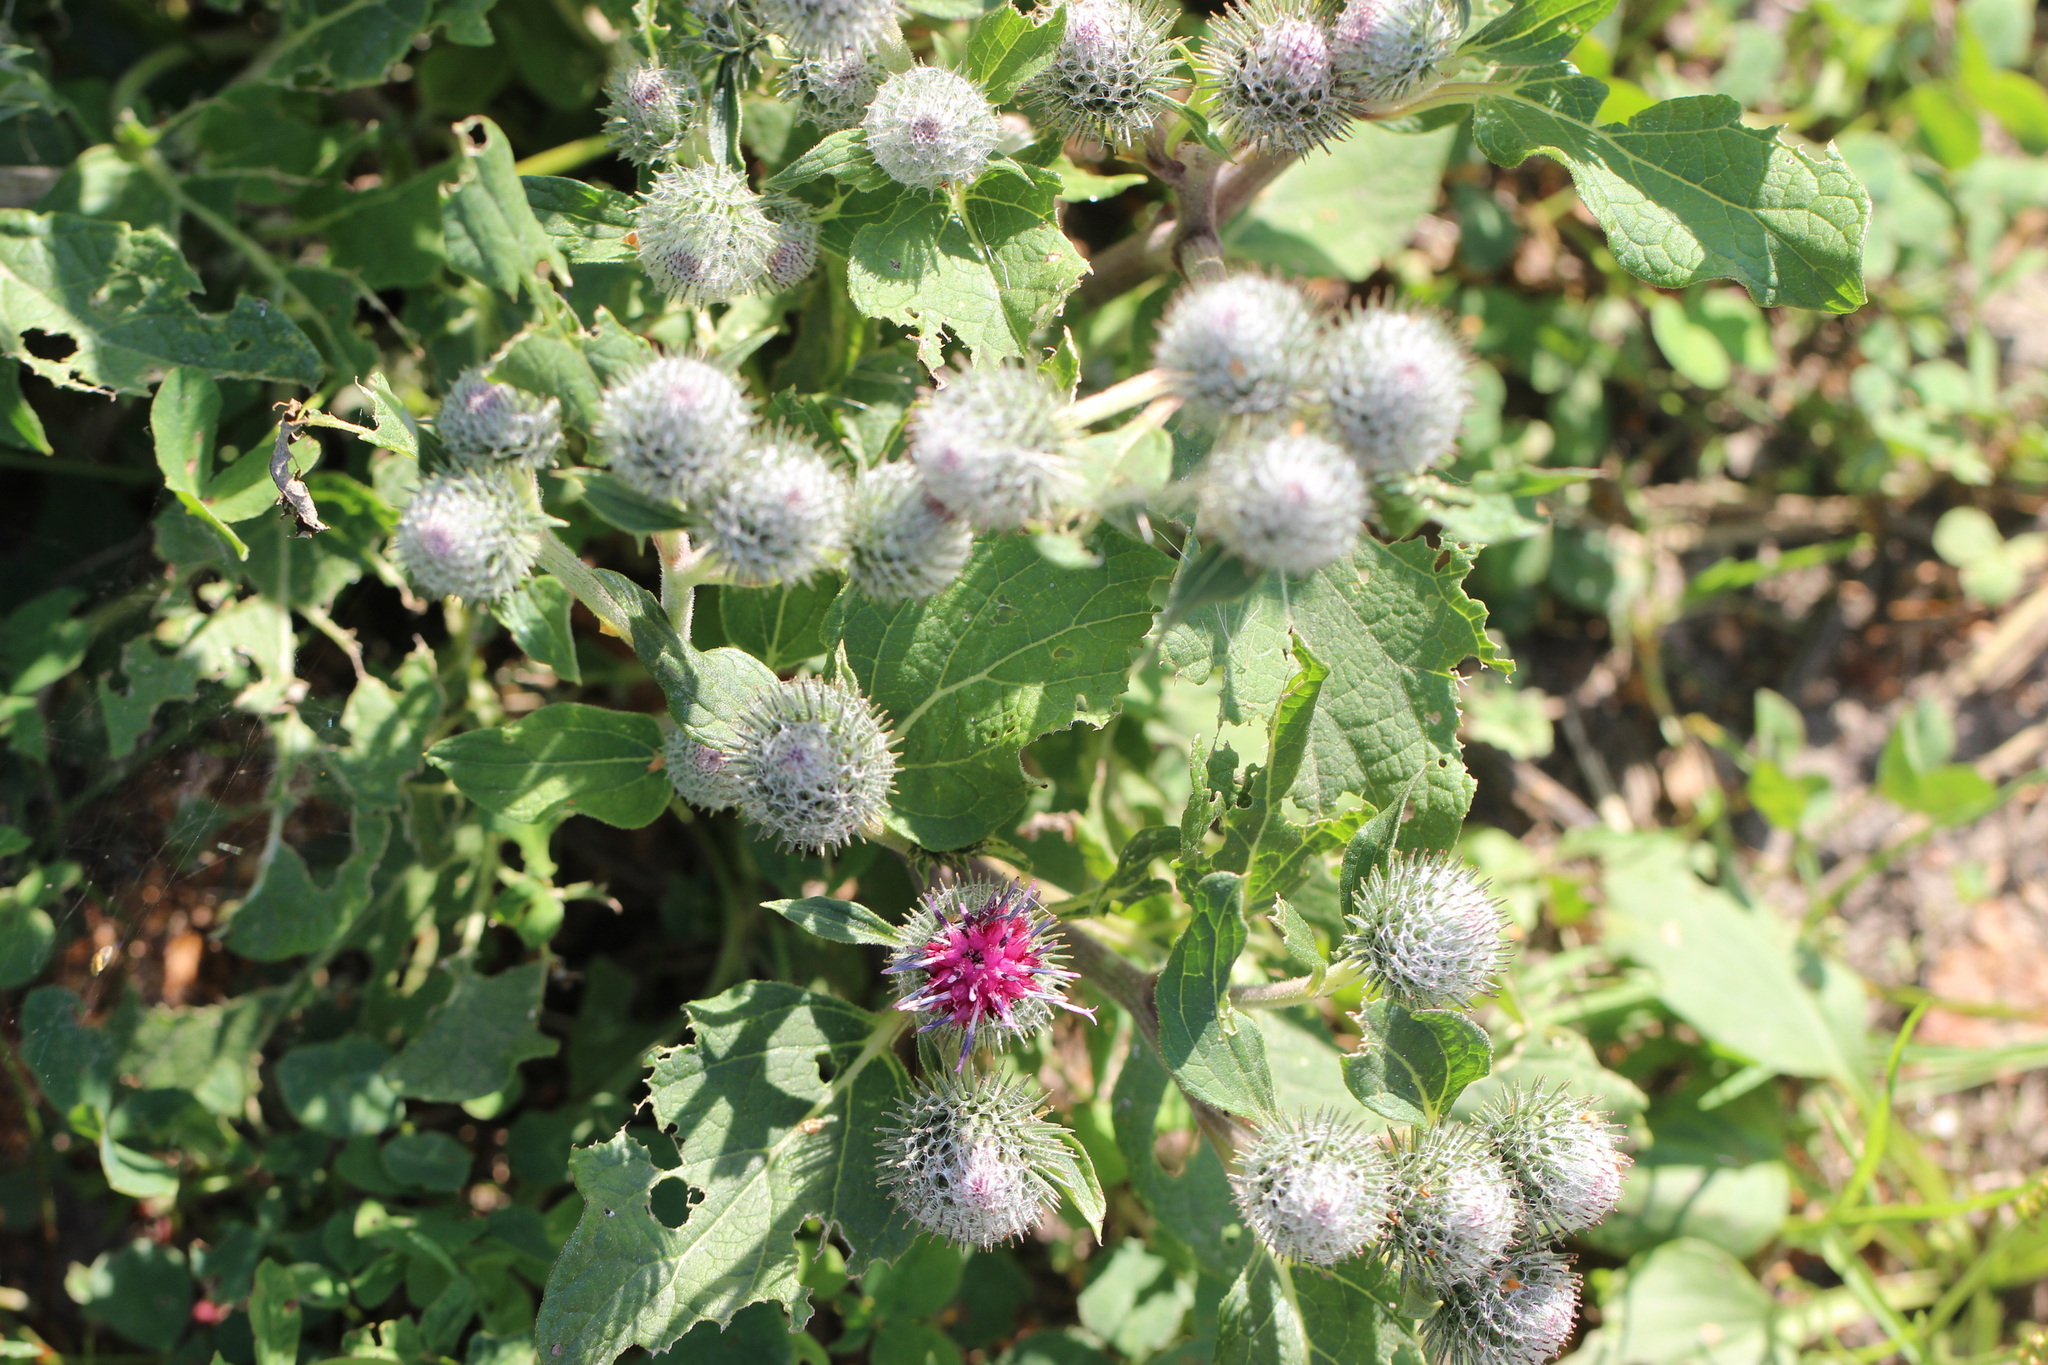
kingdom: Plantae
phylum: Tracheophyta
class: Magnoliopsida
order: Asterales
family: Asteraceae
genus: Arctium
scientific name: Arctium tomentosum
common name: Woolly burdock
